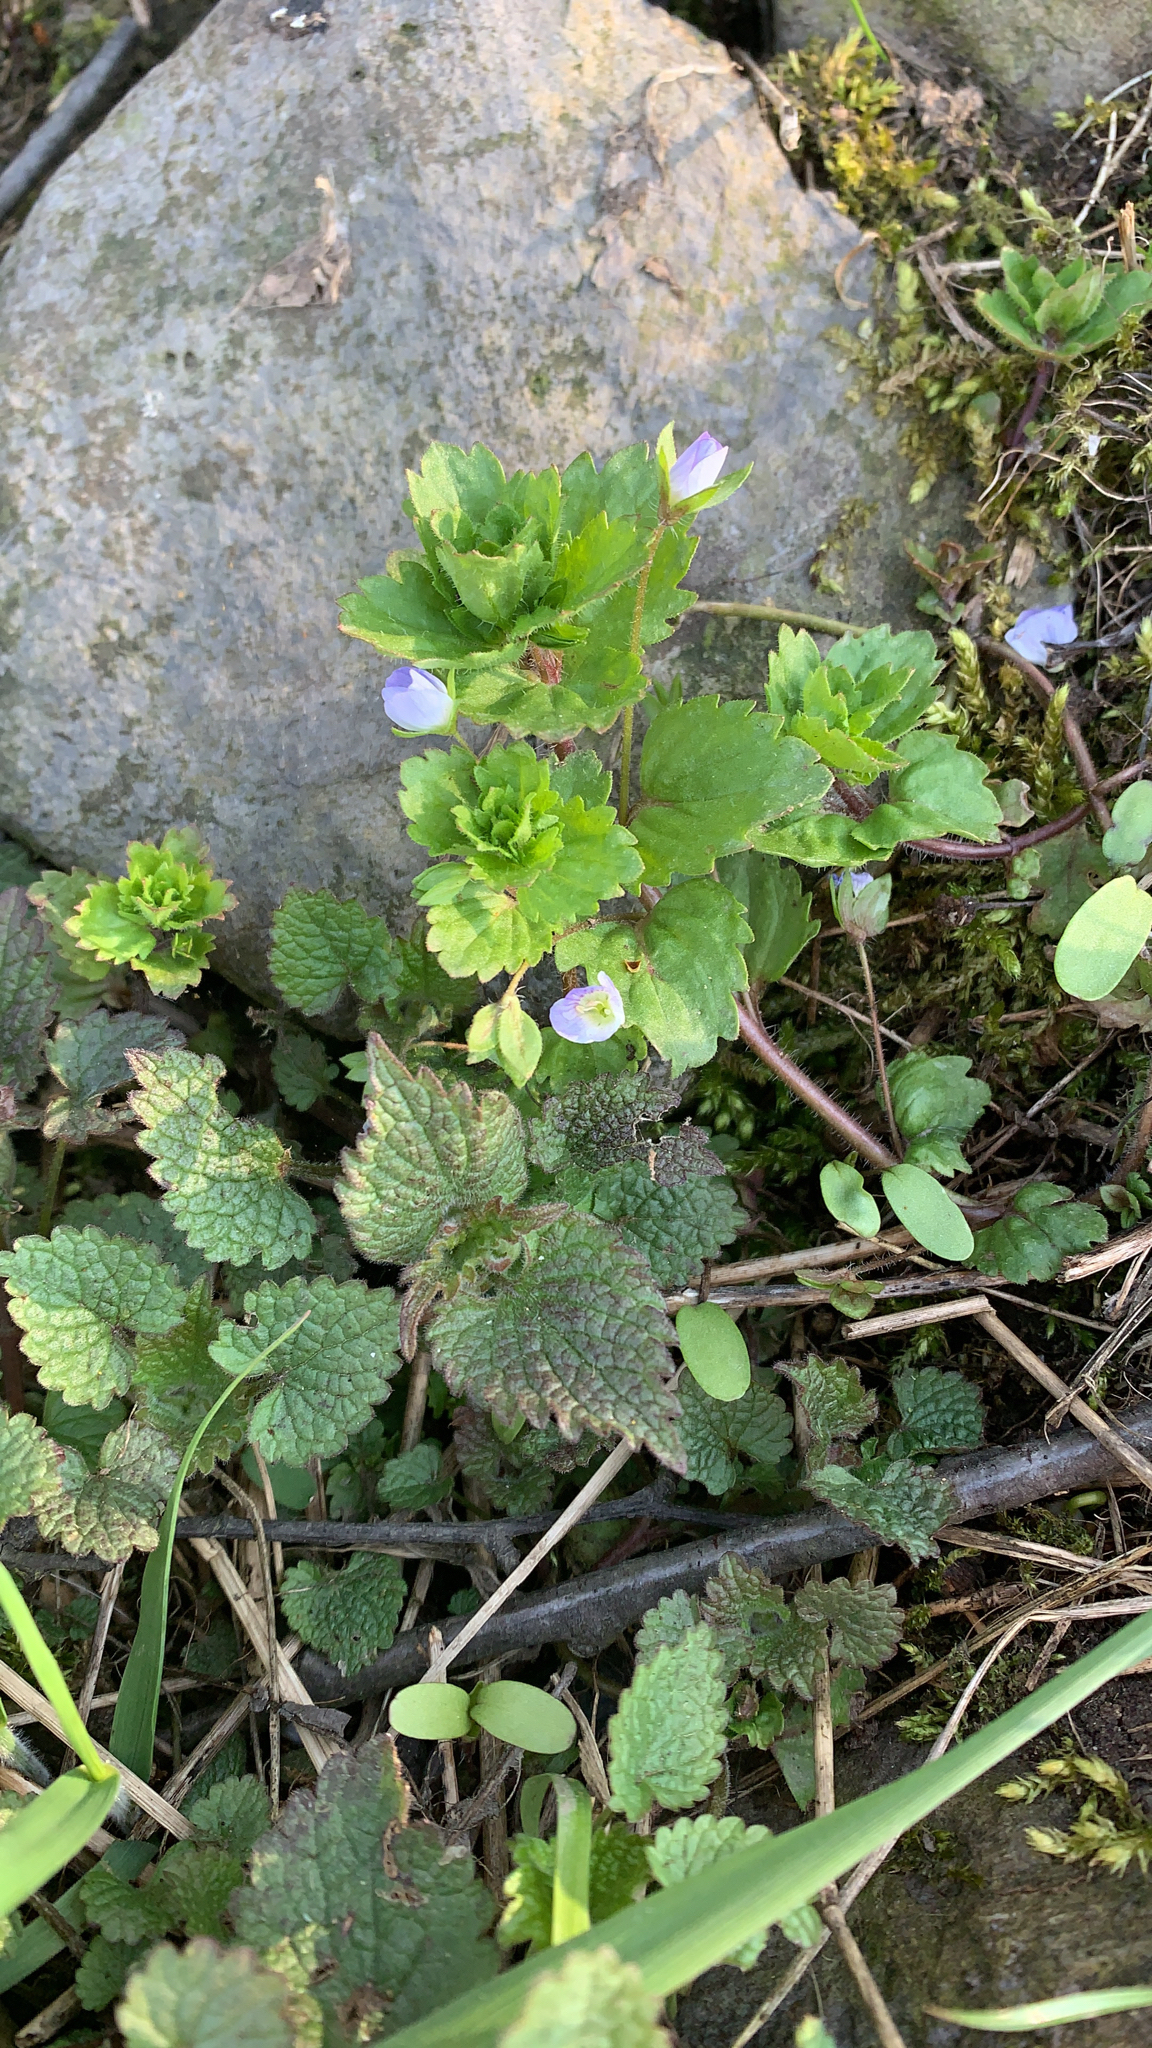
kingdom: Plantae
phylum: Tracheophyta
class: Magnoliopsida
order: Lamiales
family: Plantaginaceae
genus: Veronica
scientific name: Veronica persica
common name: Common field-speedwell
